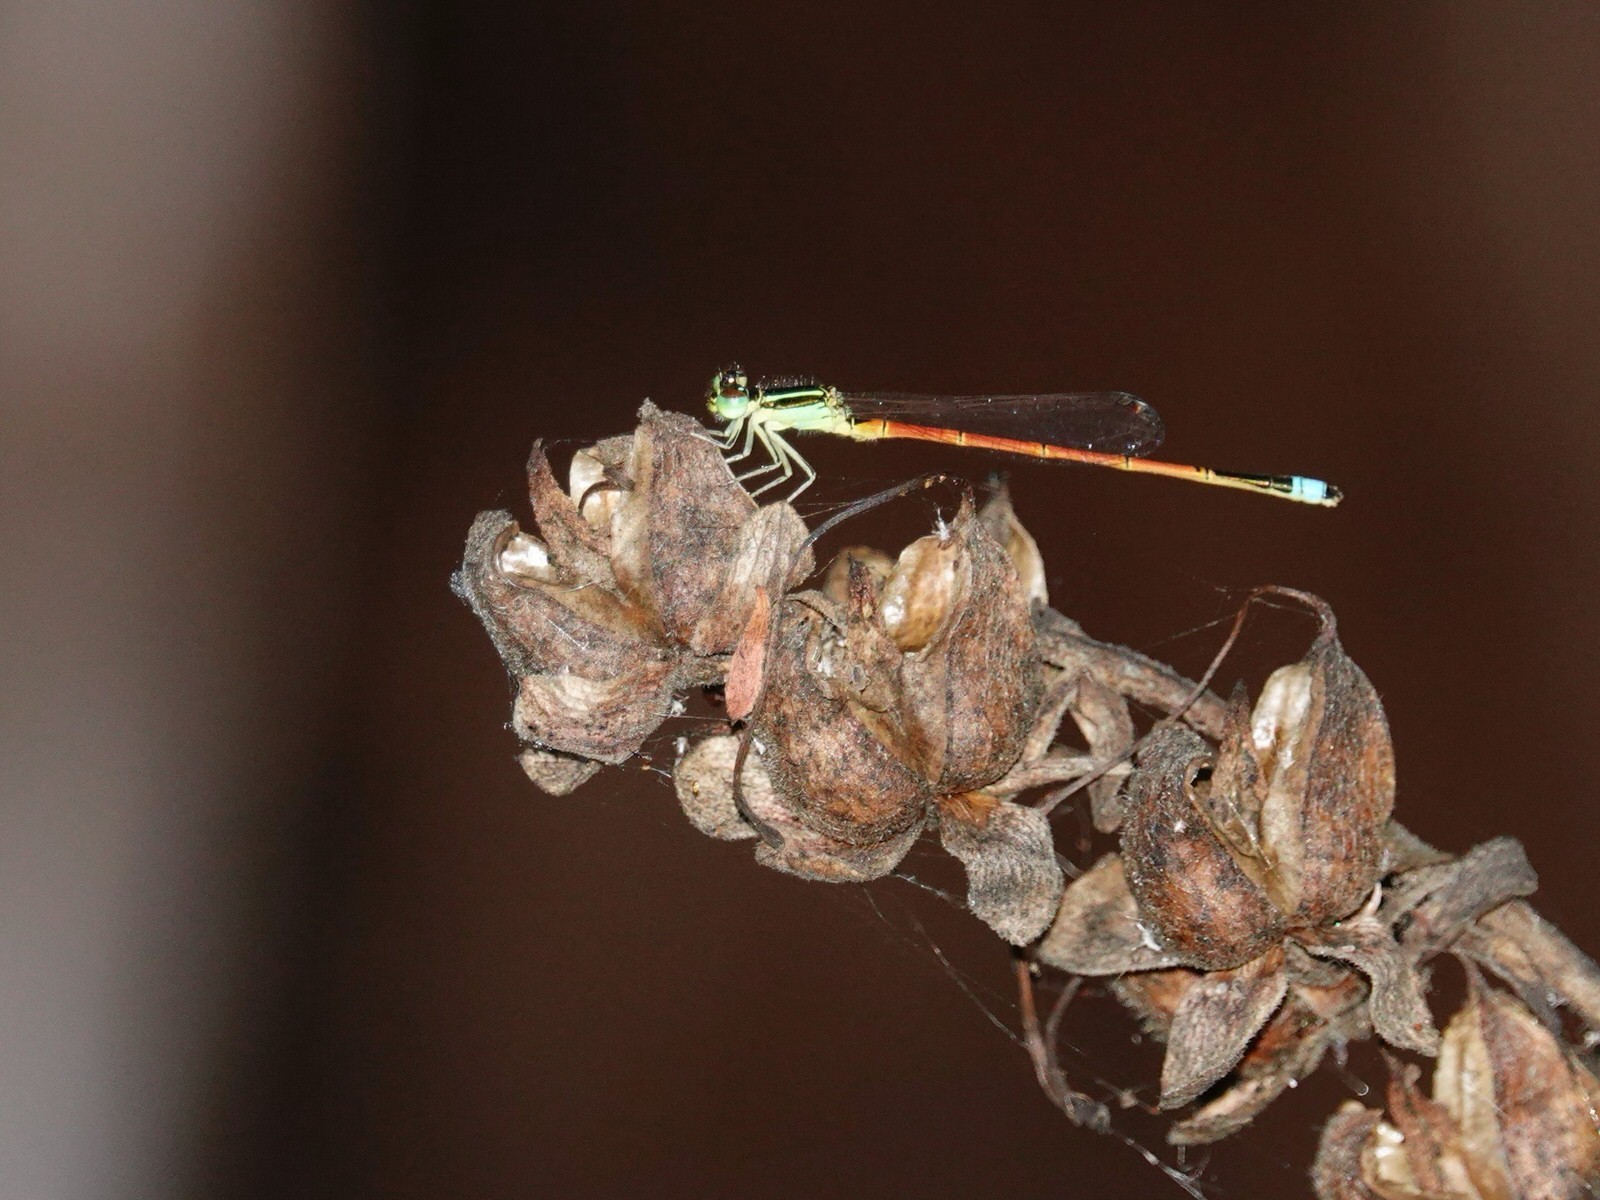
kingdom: Animalia
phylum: Arthropoda
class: Insecta
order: Odonata
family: Coenagrionidae
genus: Ischnura
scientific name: Ischnura aurora
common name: Gossamer damselfly
